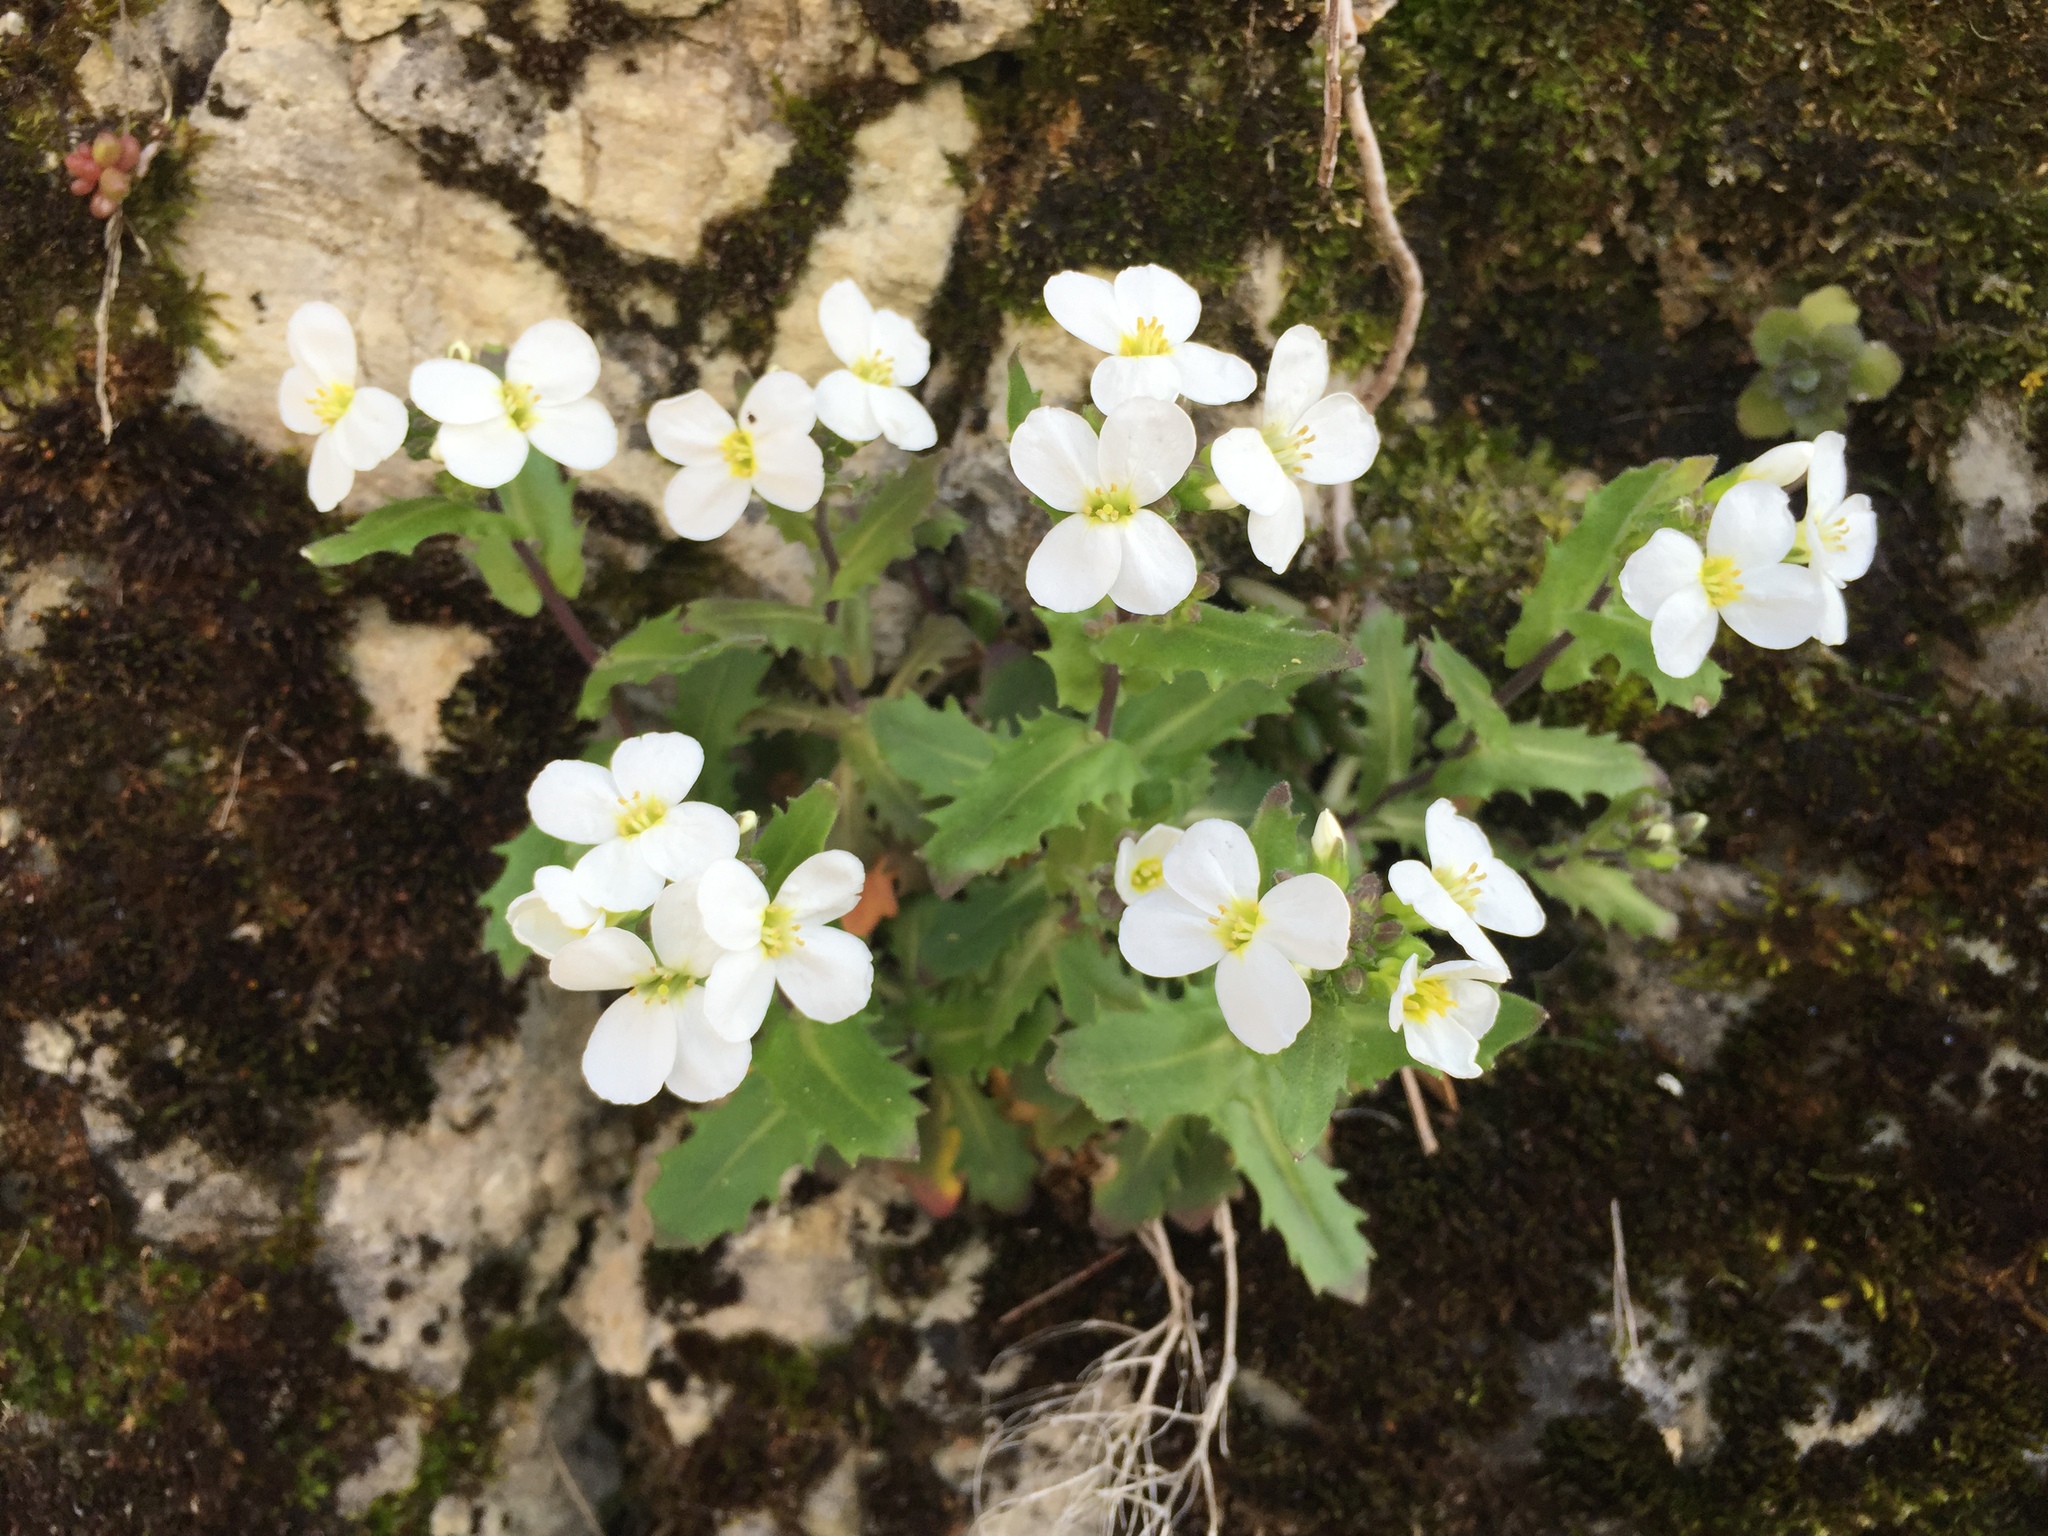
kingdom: Plantae
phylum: Tracheophyta
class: Magnoliopsida
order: Brassicales
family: Brassicaceae
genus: Arabis
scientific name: Arabis alpina
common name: Alpine rock-cress
